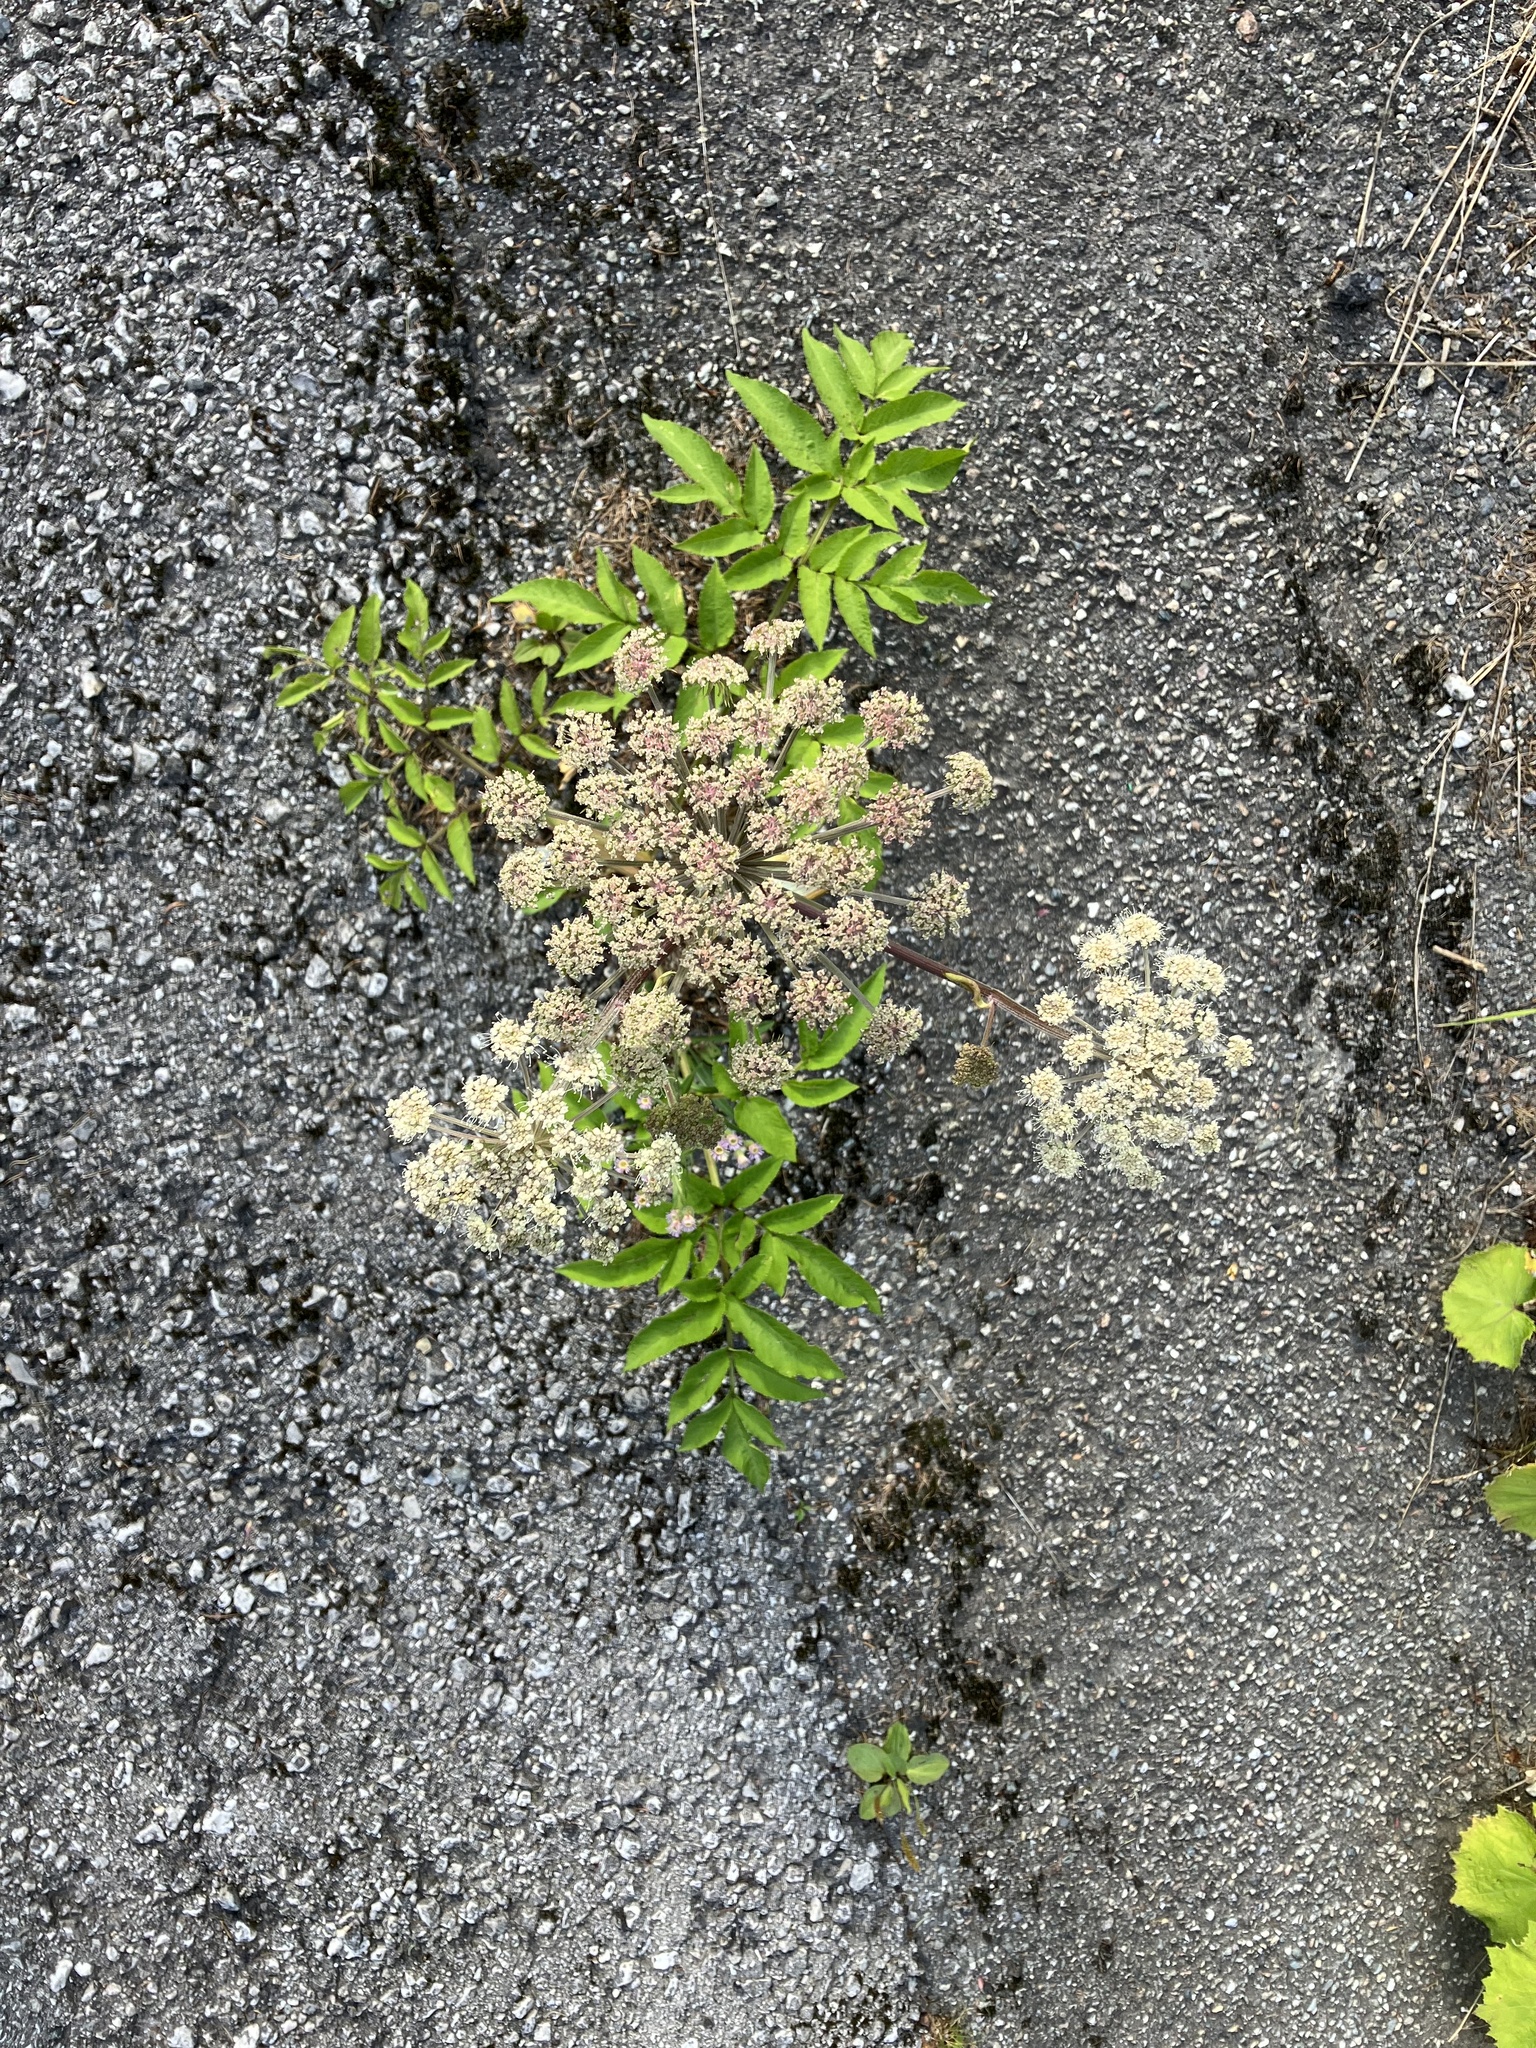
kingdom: Plantae
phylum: Tracheophyta
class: Magnoliopsida
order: Apiales
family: Apiaceae
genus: Angelica
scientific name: Angelica sylvestris
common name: Wild angelica
